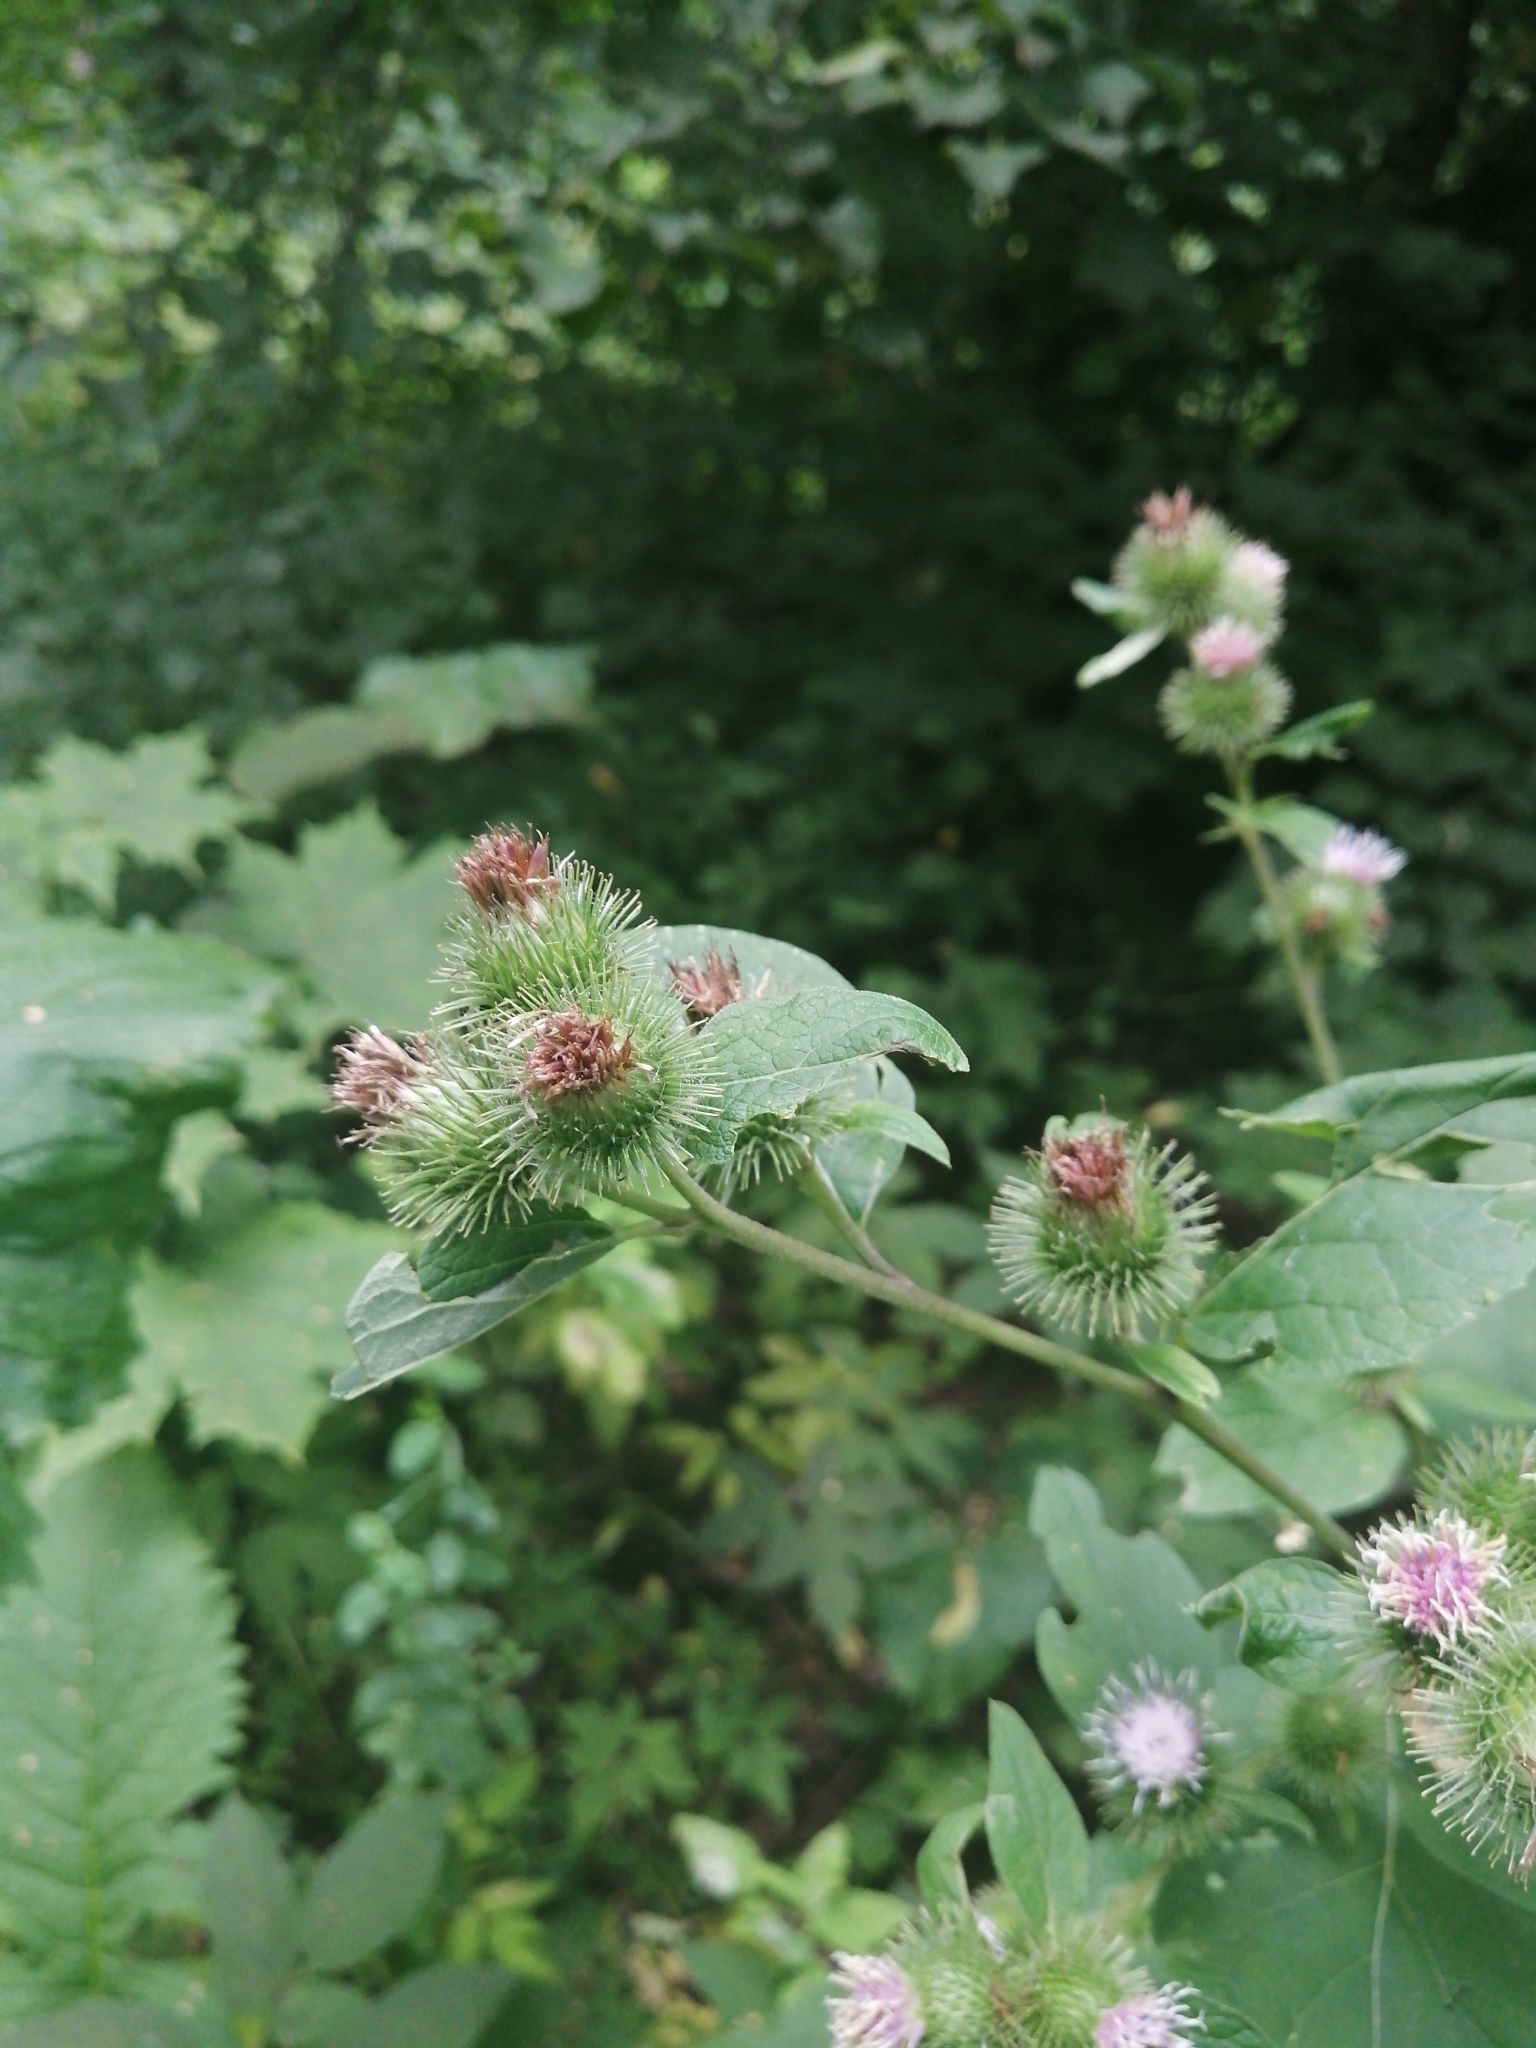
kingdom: Plantae
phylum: Tracheophyta
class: Magnoliopsida
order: Asterales
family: Asteraceae
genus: Arctium
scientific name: Arctium minus
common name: Lesser burdock
